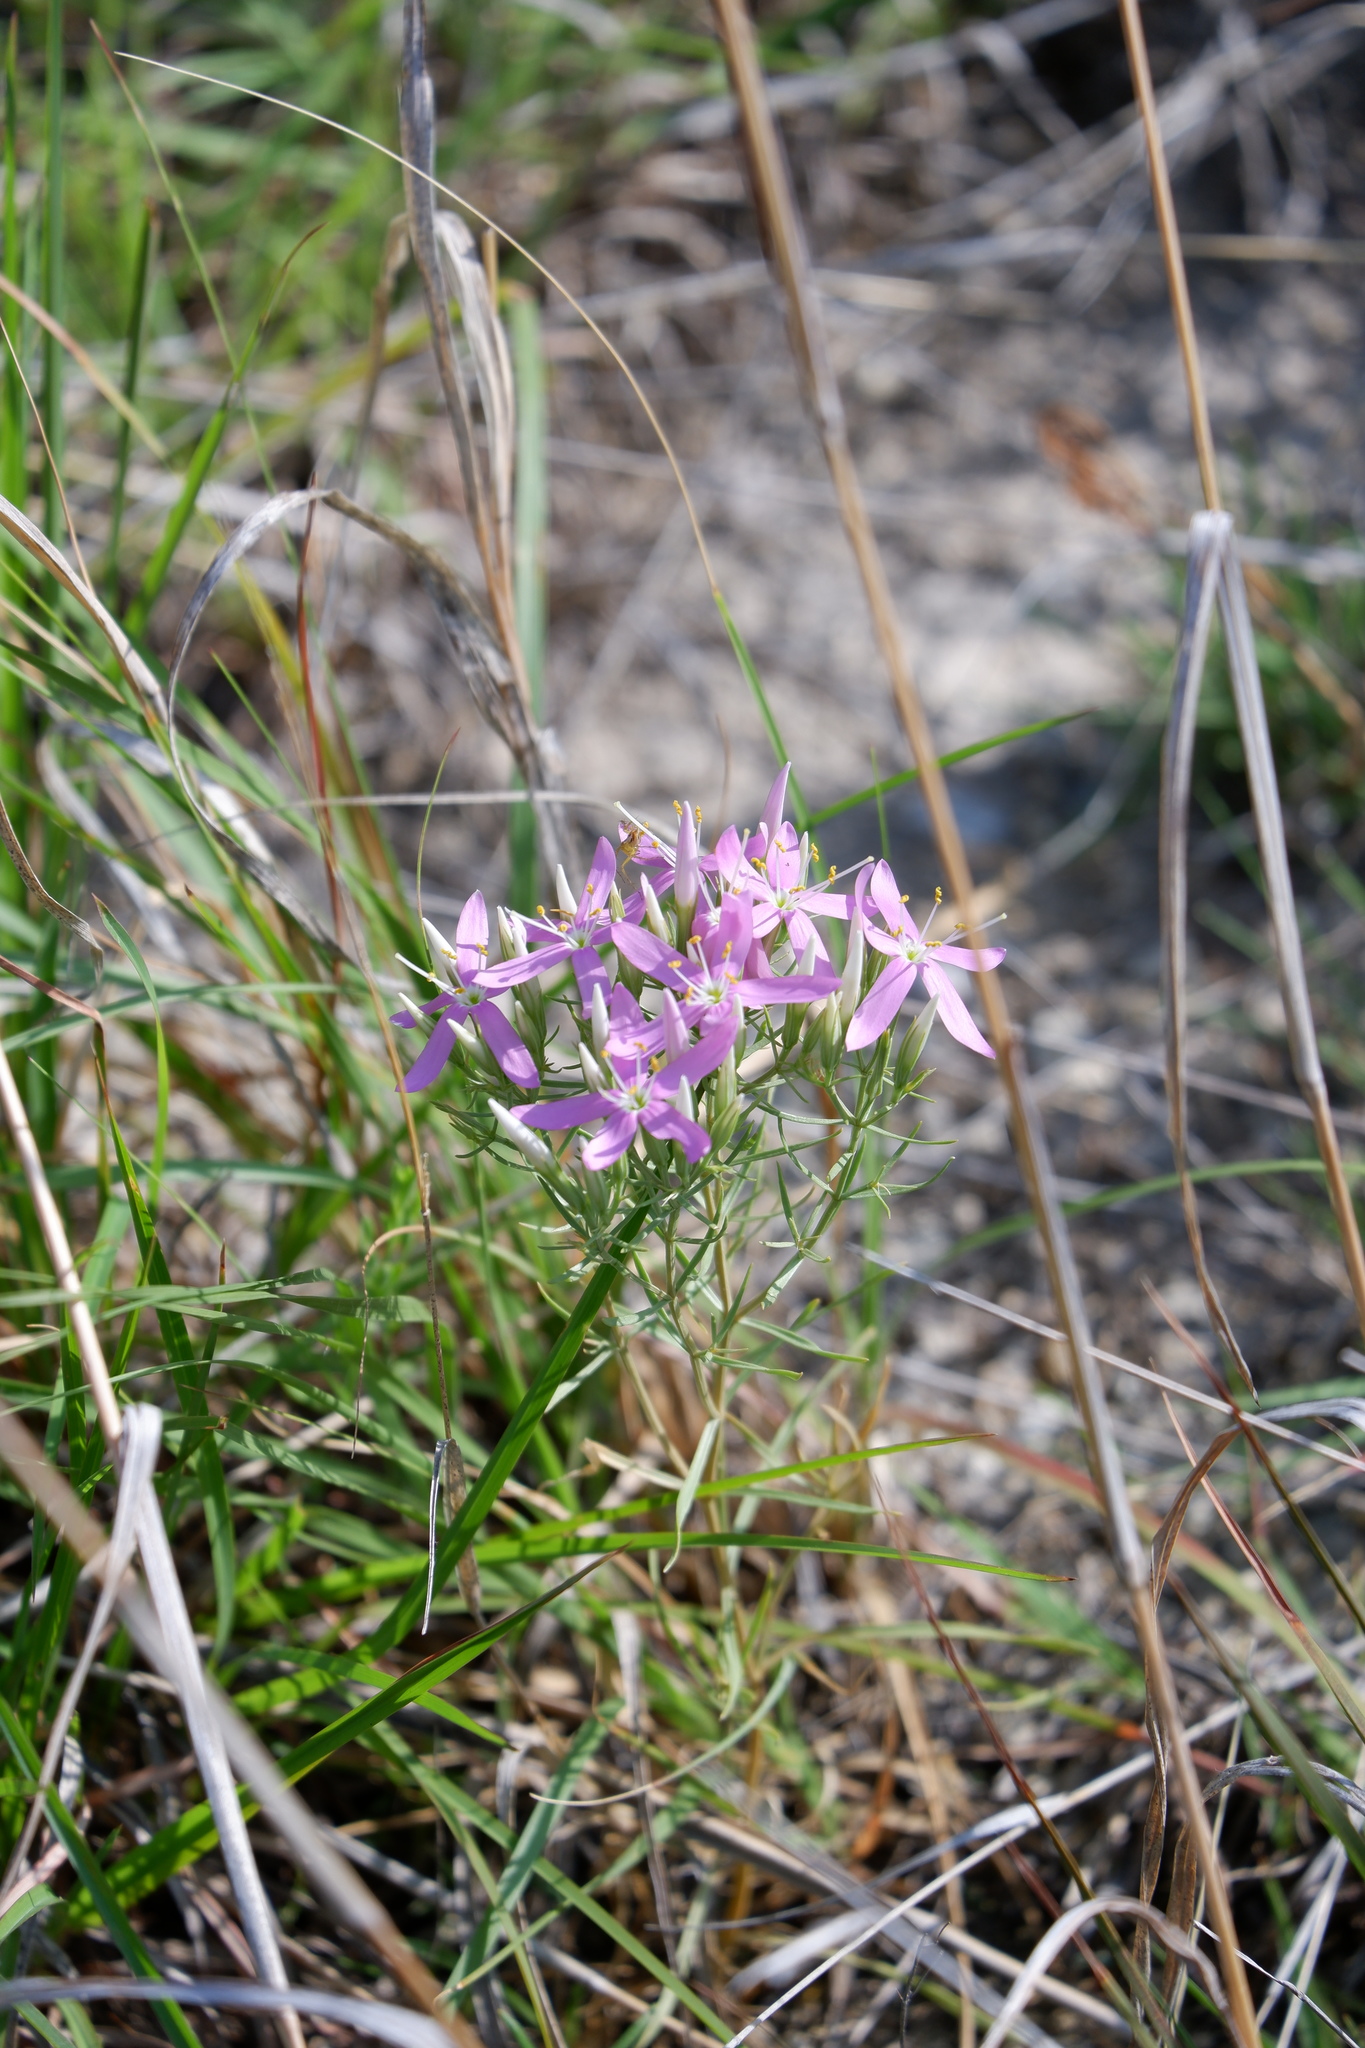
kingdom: Plantae
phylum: Tracheophyta
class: Magnoliopsida
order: Gentianales
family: Gentianaceae
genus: Zeltnera
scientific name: Zeltnera beyrichii
